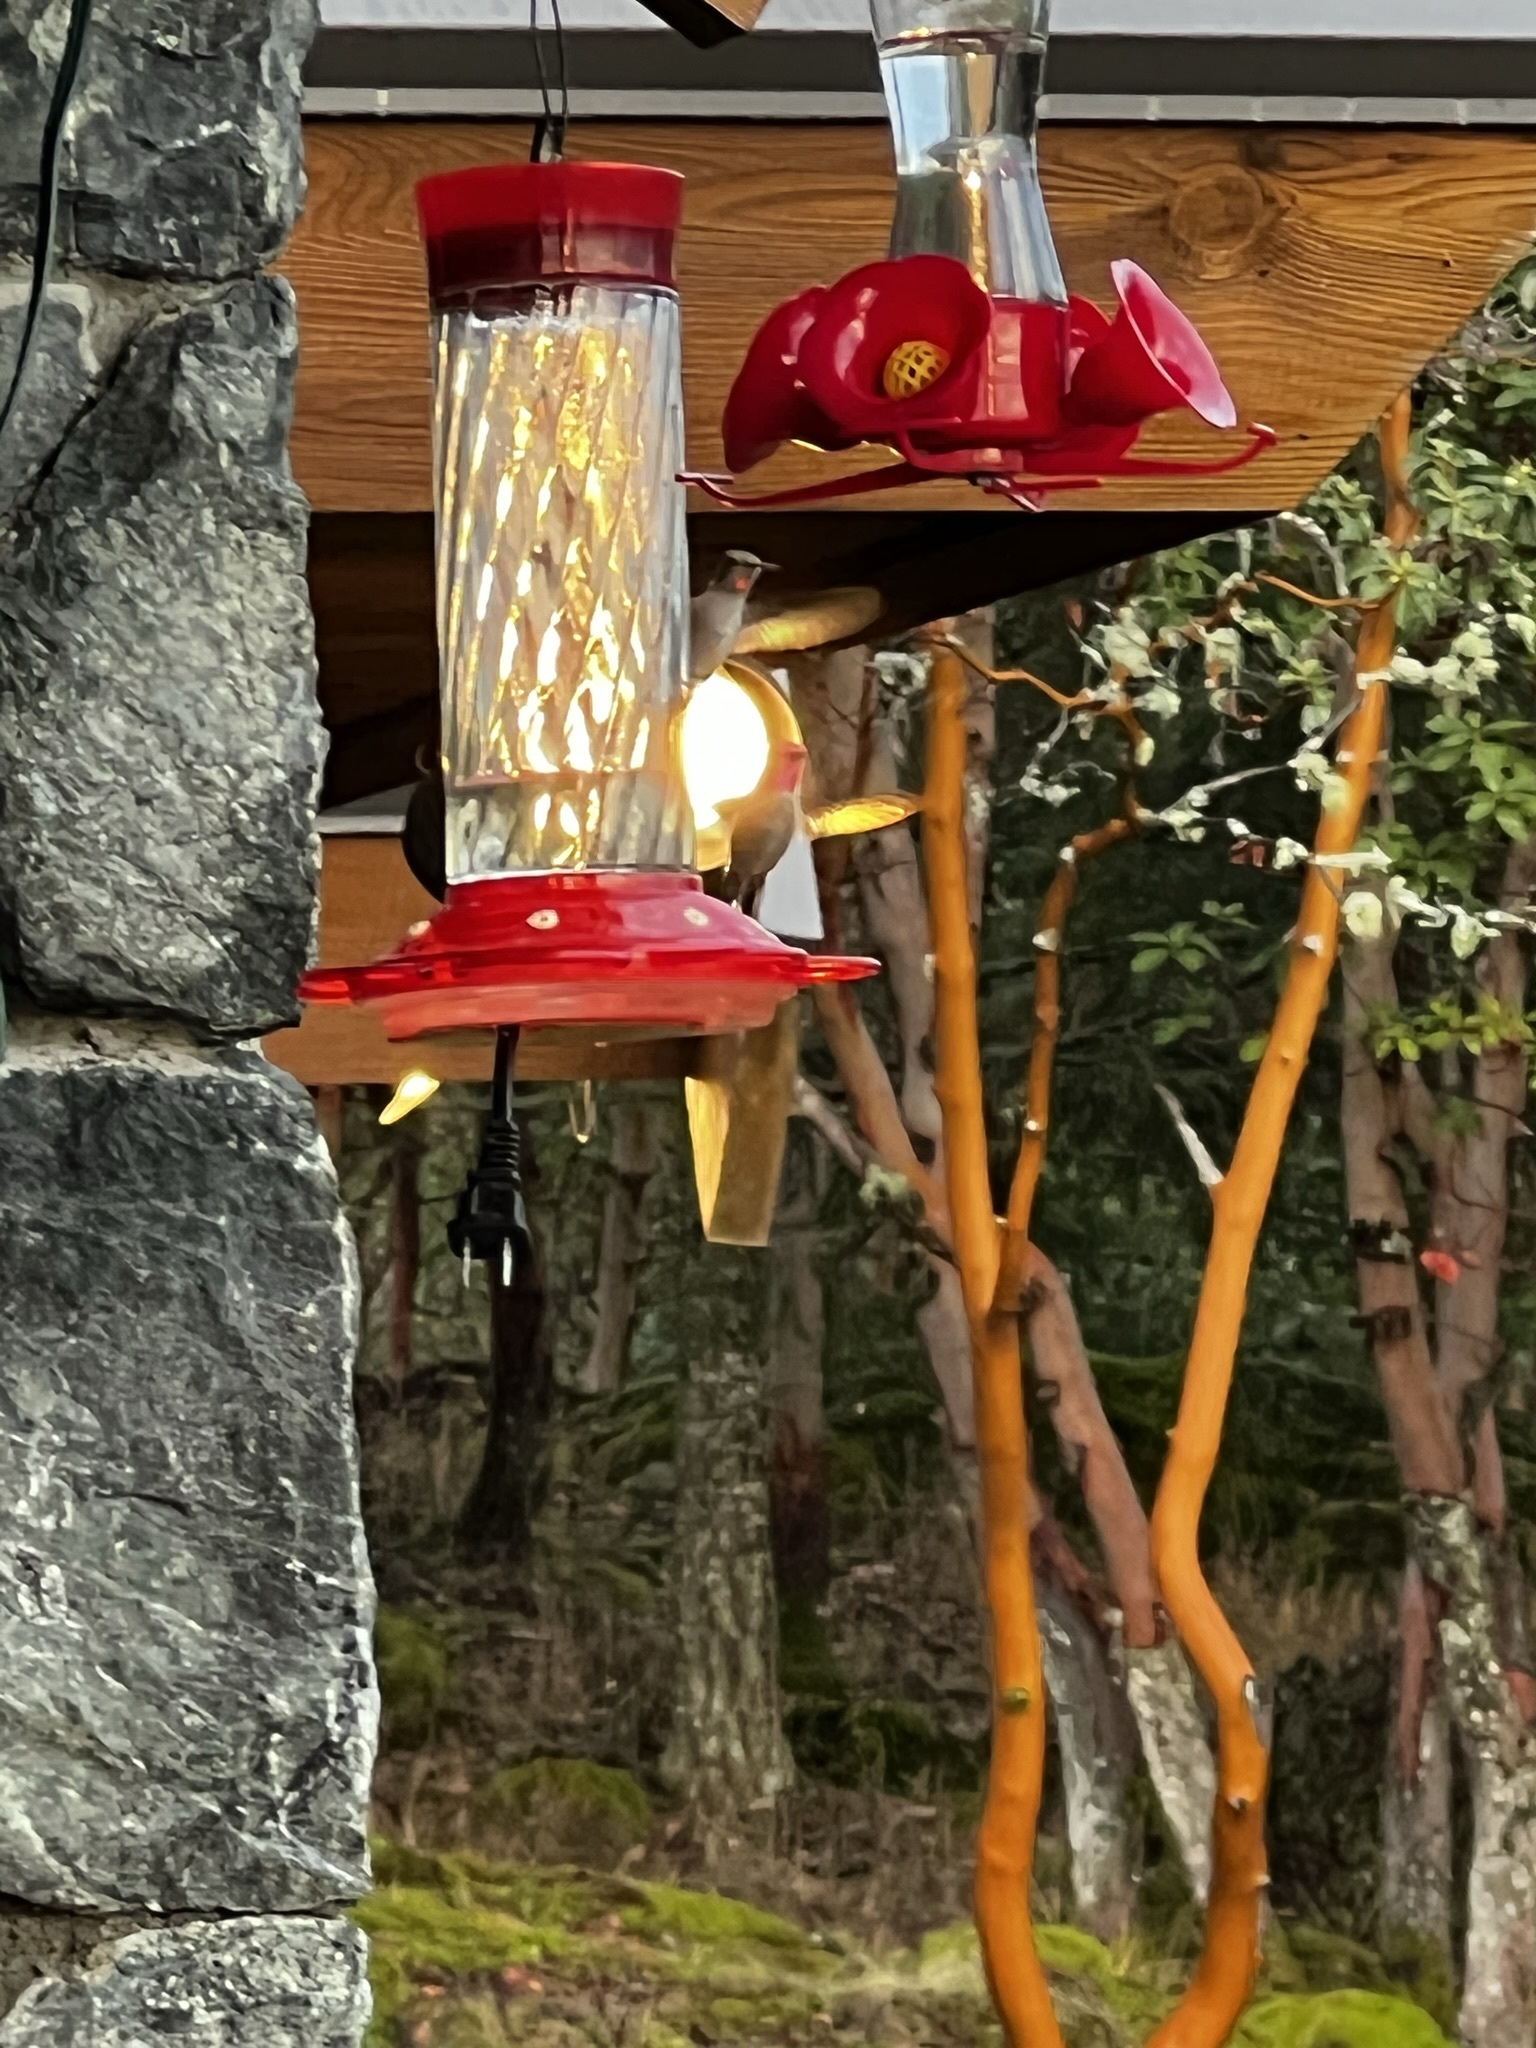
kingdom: Animalia
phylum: Chordata
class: Aves
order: Apodiformes
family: Trochilidae
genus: Calypte
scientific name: Calypte anna
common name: Anna's hummingbird
